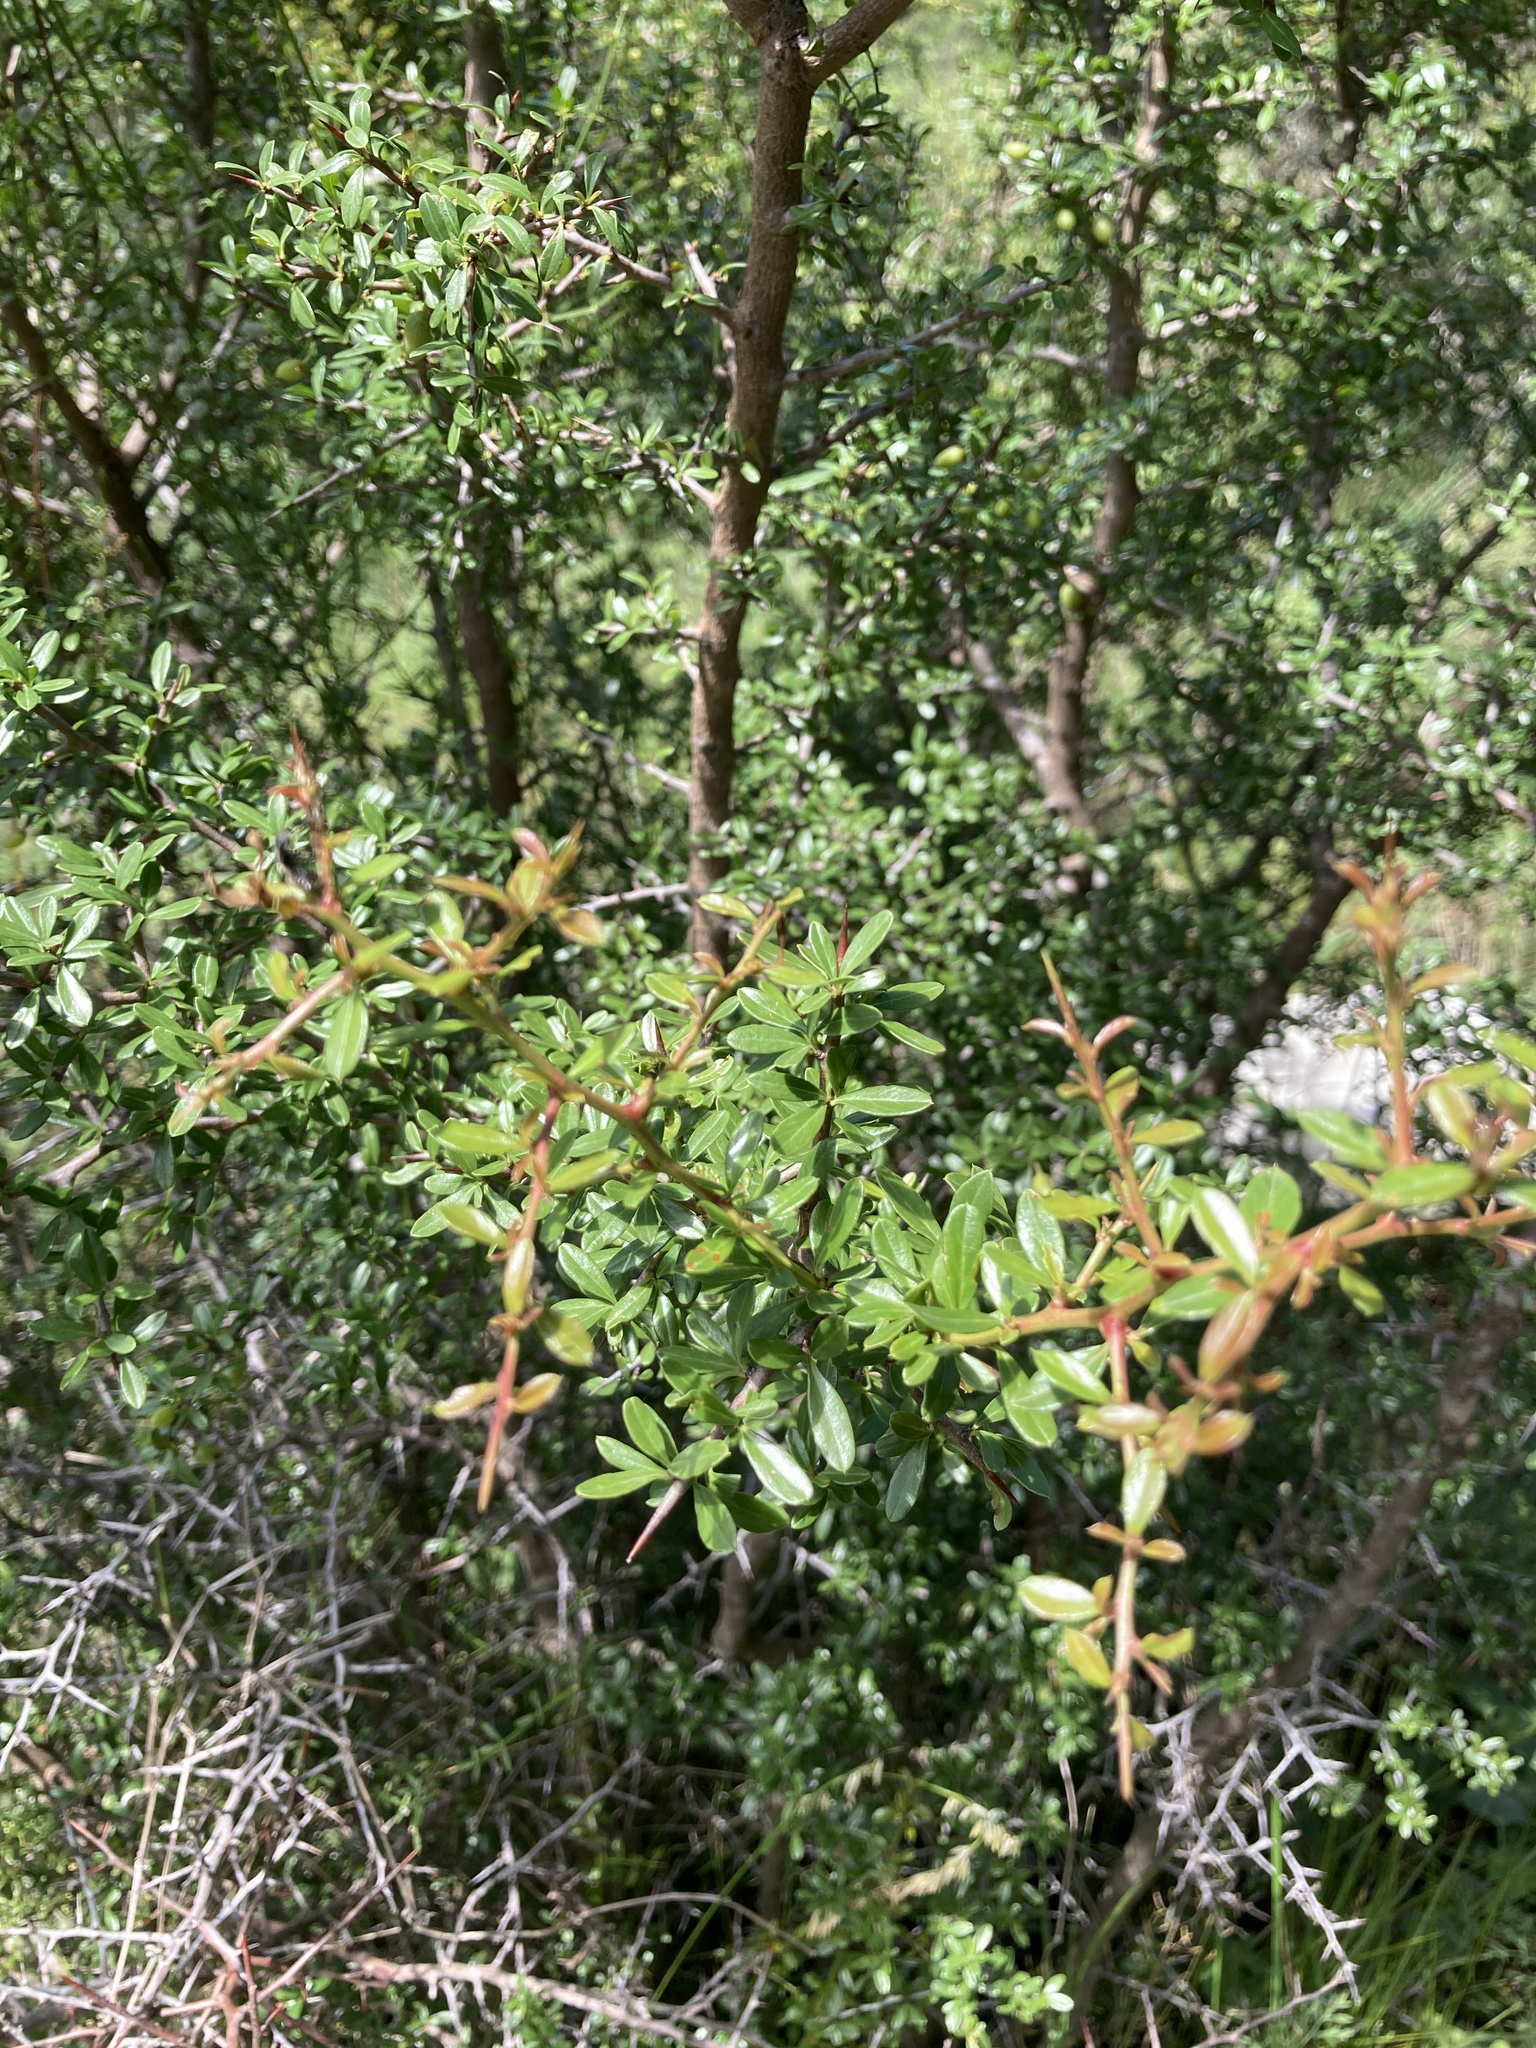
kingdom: Plantae
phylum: Tracheophyta
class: Magnoliopsida
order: Rosales
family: Rhamnaceae
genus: Condalia
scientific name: Condalia microphylla
